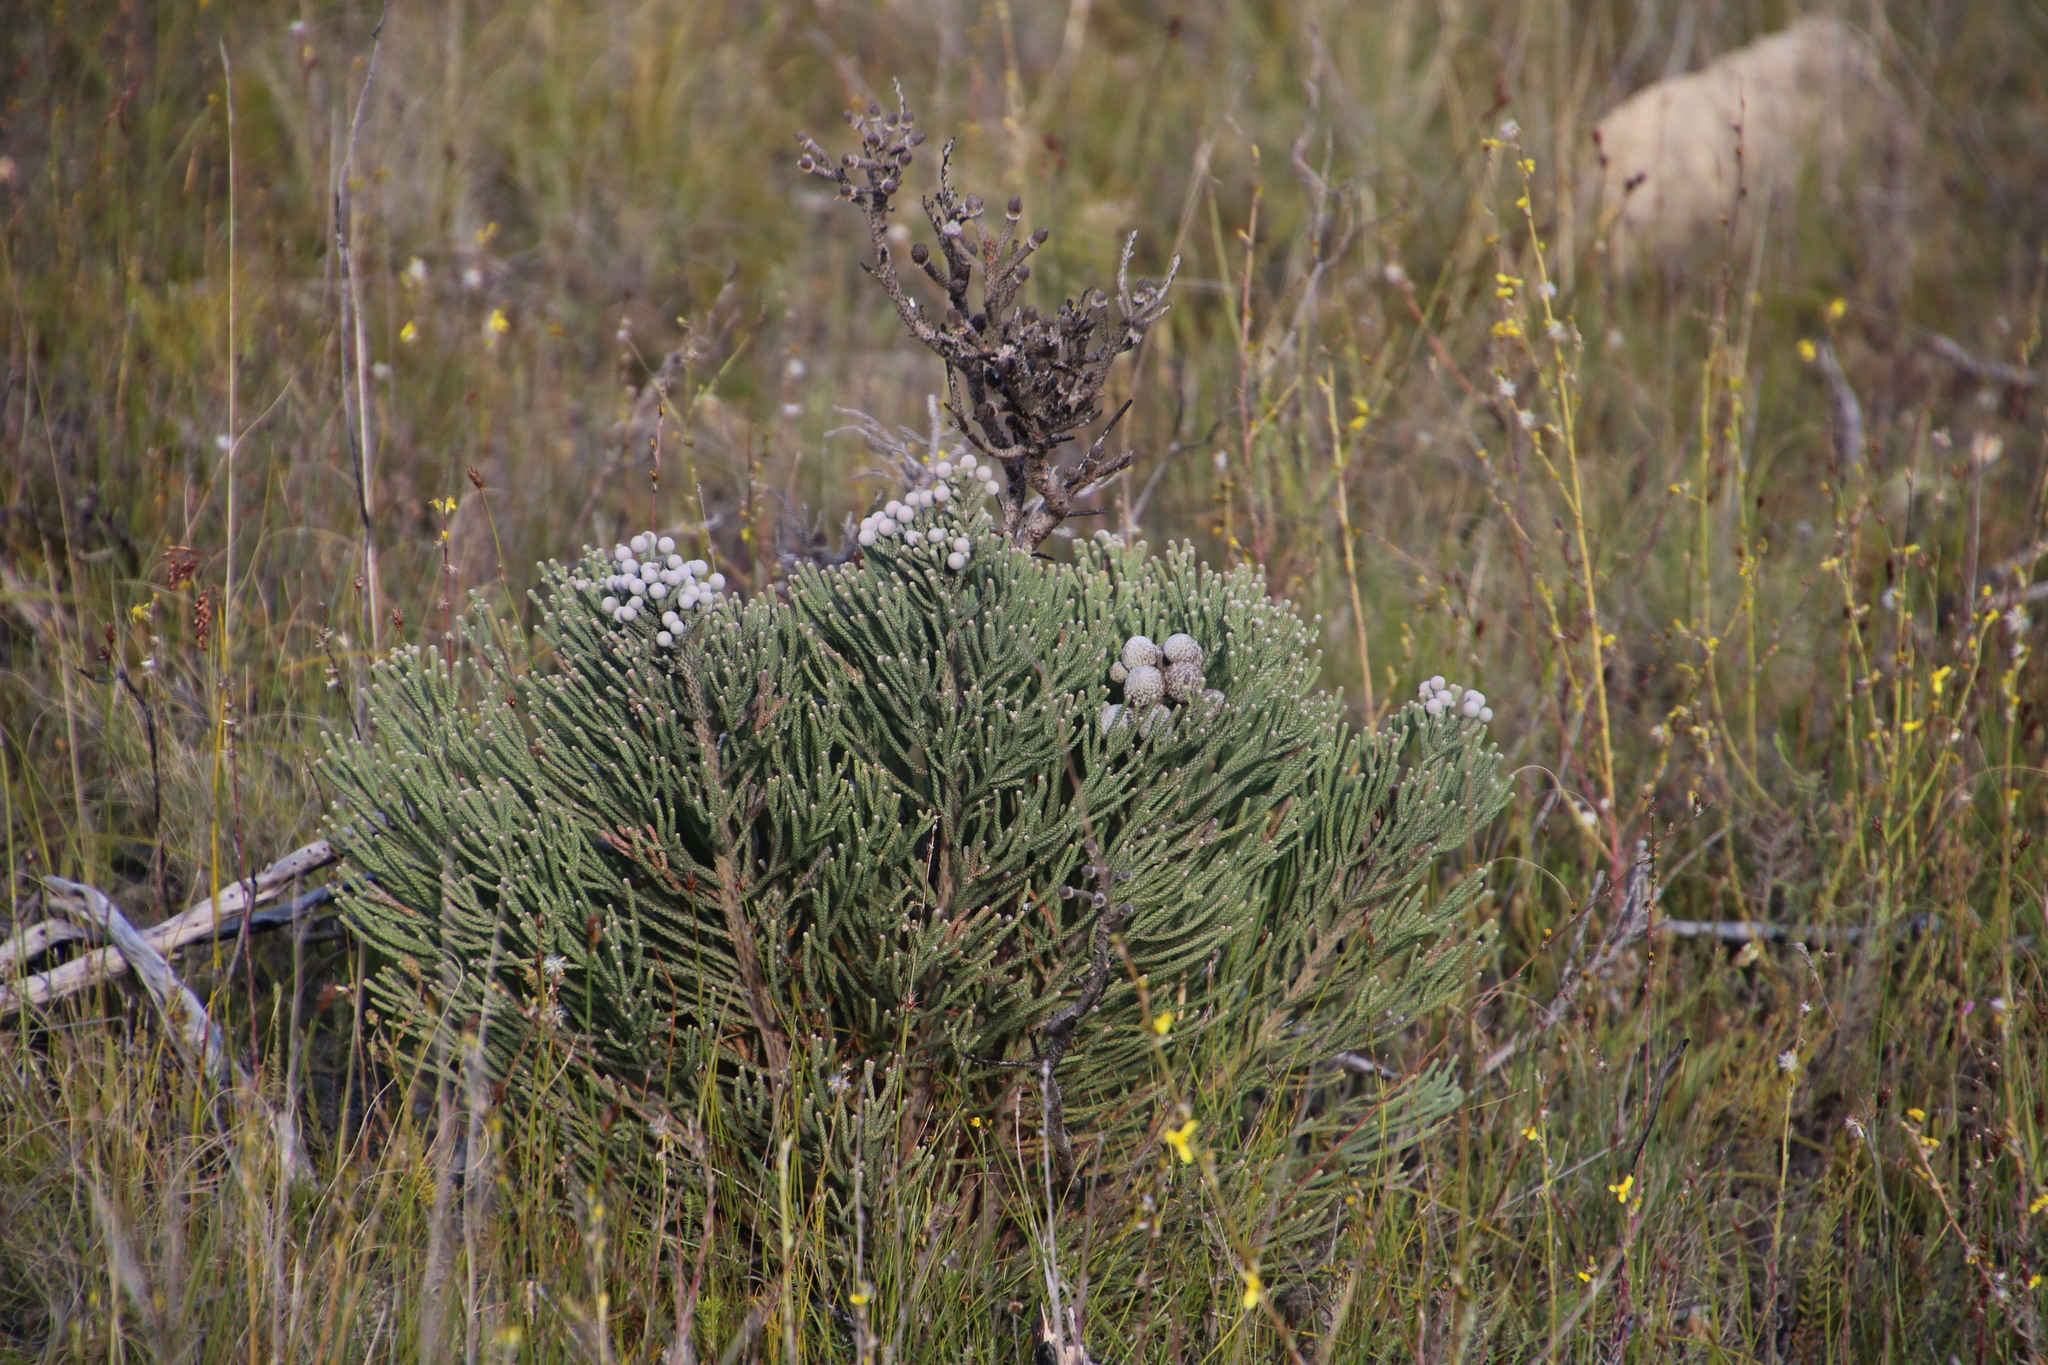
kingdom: Plantae
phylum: Tracheophyta
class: Magnoliopsida
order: Bruniales
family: Bruniaceae
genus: Brunia
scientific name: Brunia laevis
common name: Silver brunia
